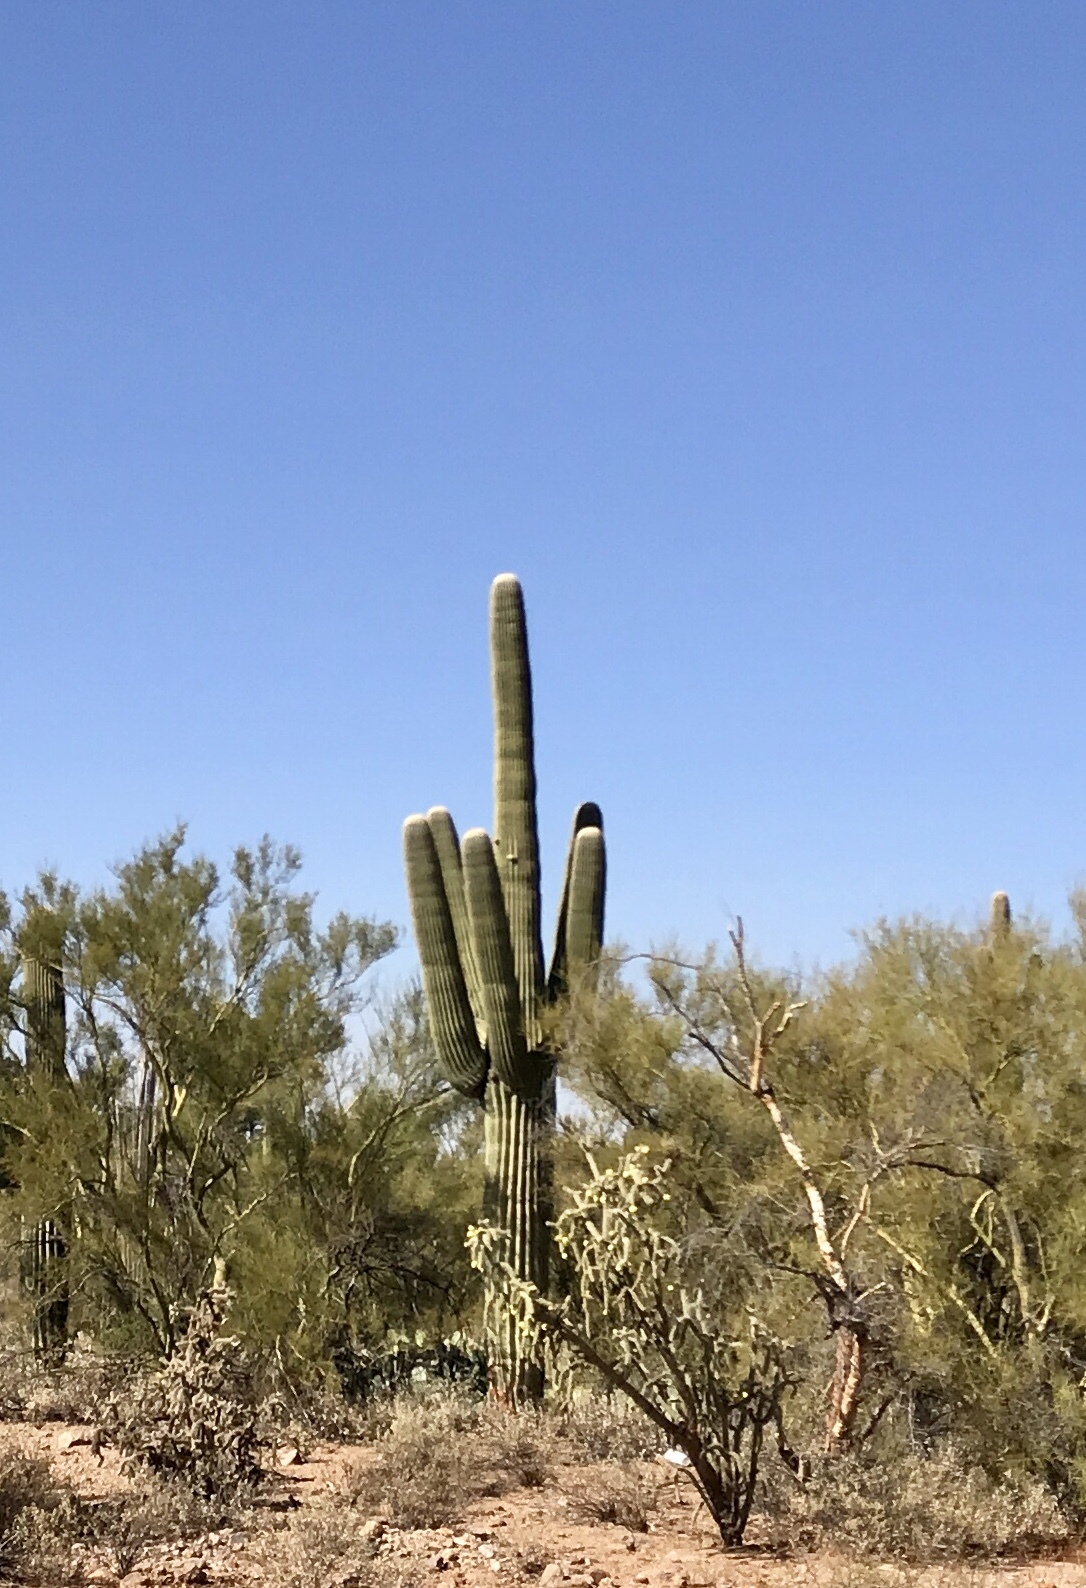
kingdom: Plantae
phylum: Tracheophyta
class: Magnoliopsida
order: Caryophyllales
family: Cactaceae
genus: Carnegiea
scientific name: Carnegiea gigantea
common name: Saguaro
